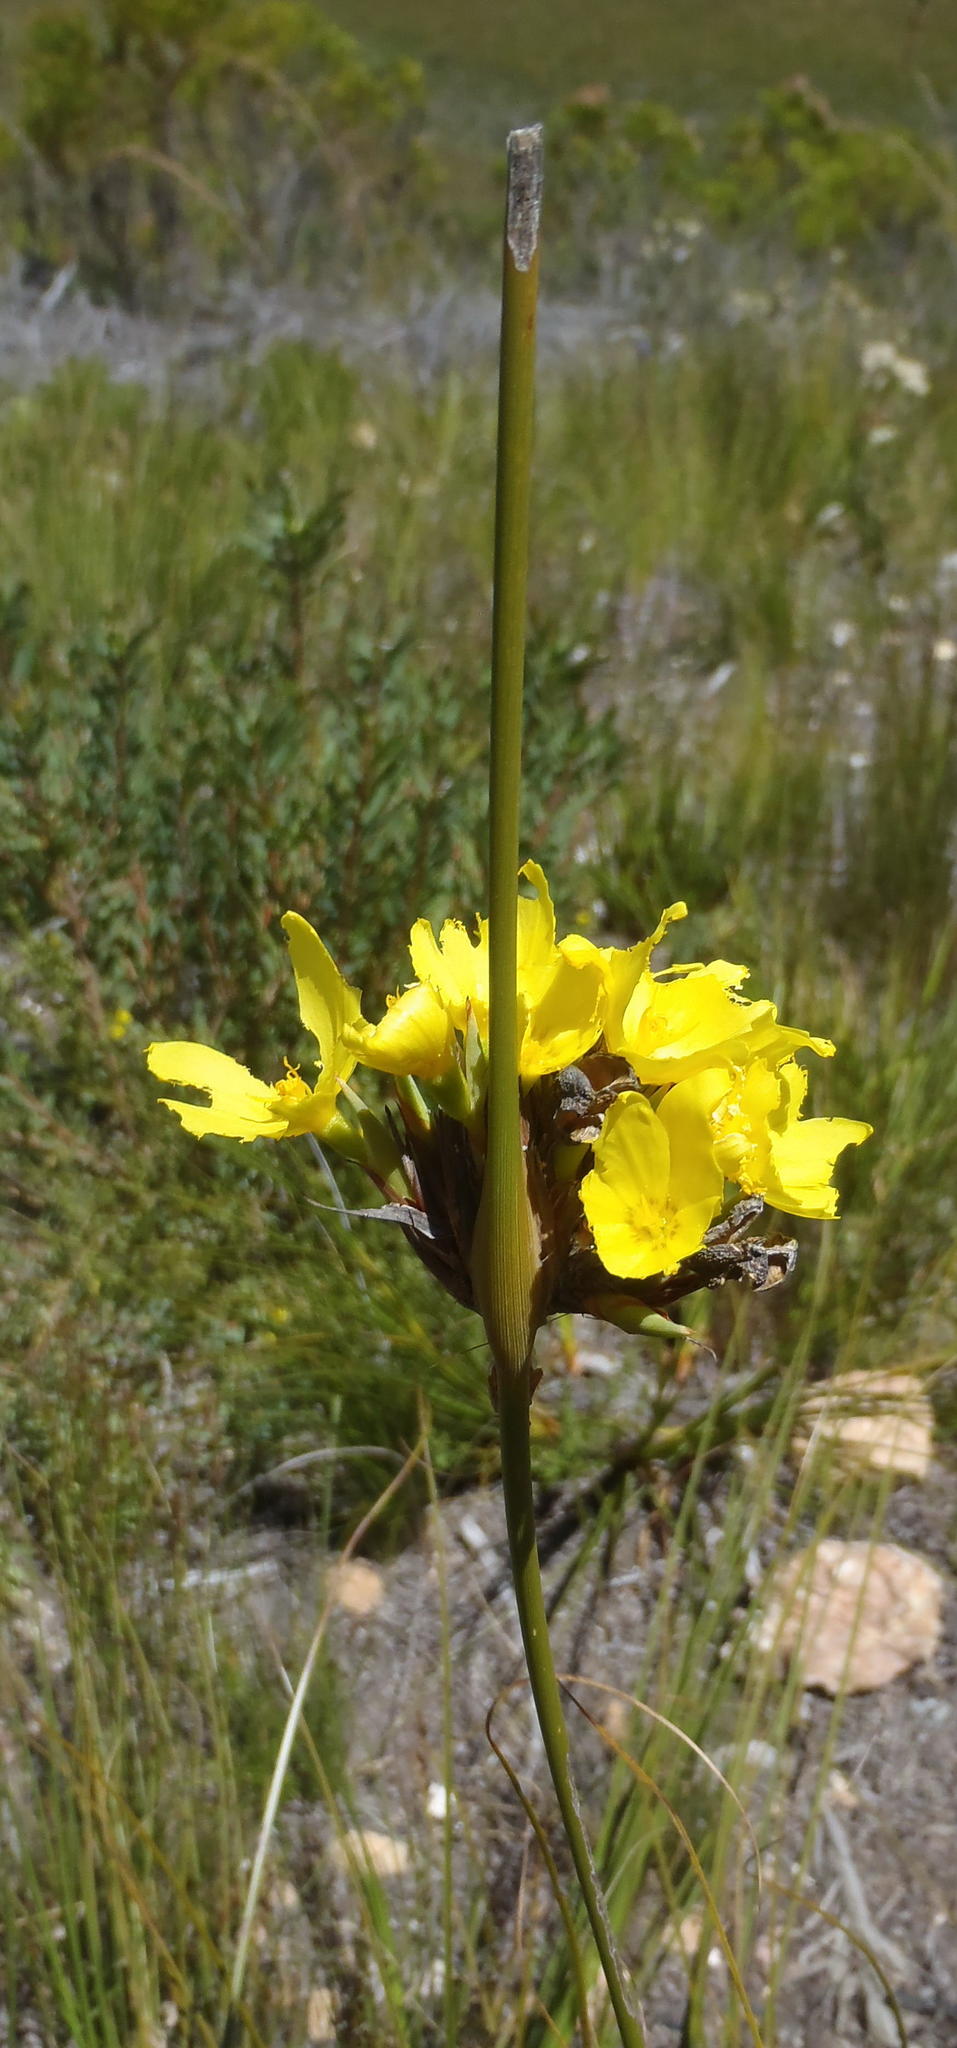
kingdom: Plantae
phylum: Tracheophyta
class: Liliopsida
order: Asparagales
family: Iridaceae
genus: Bobartia
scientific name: Bobartia aphylla
